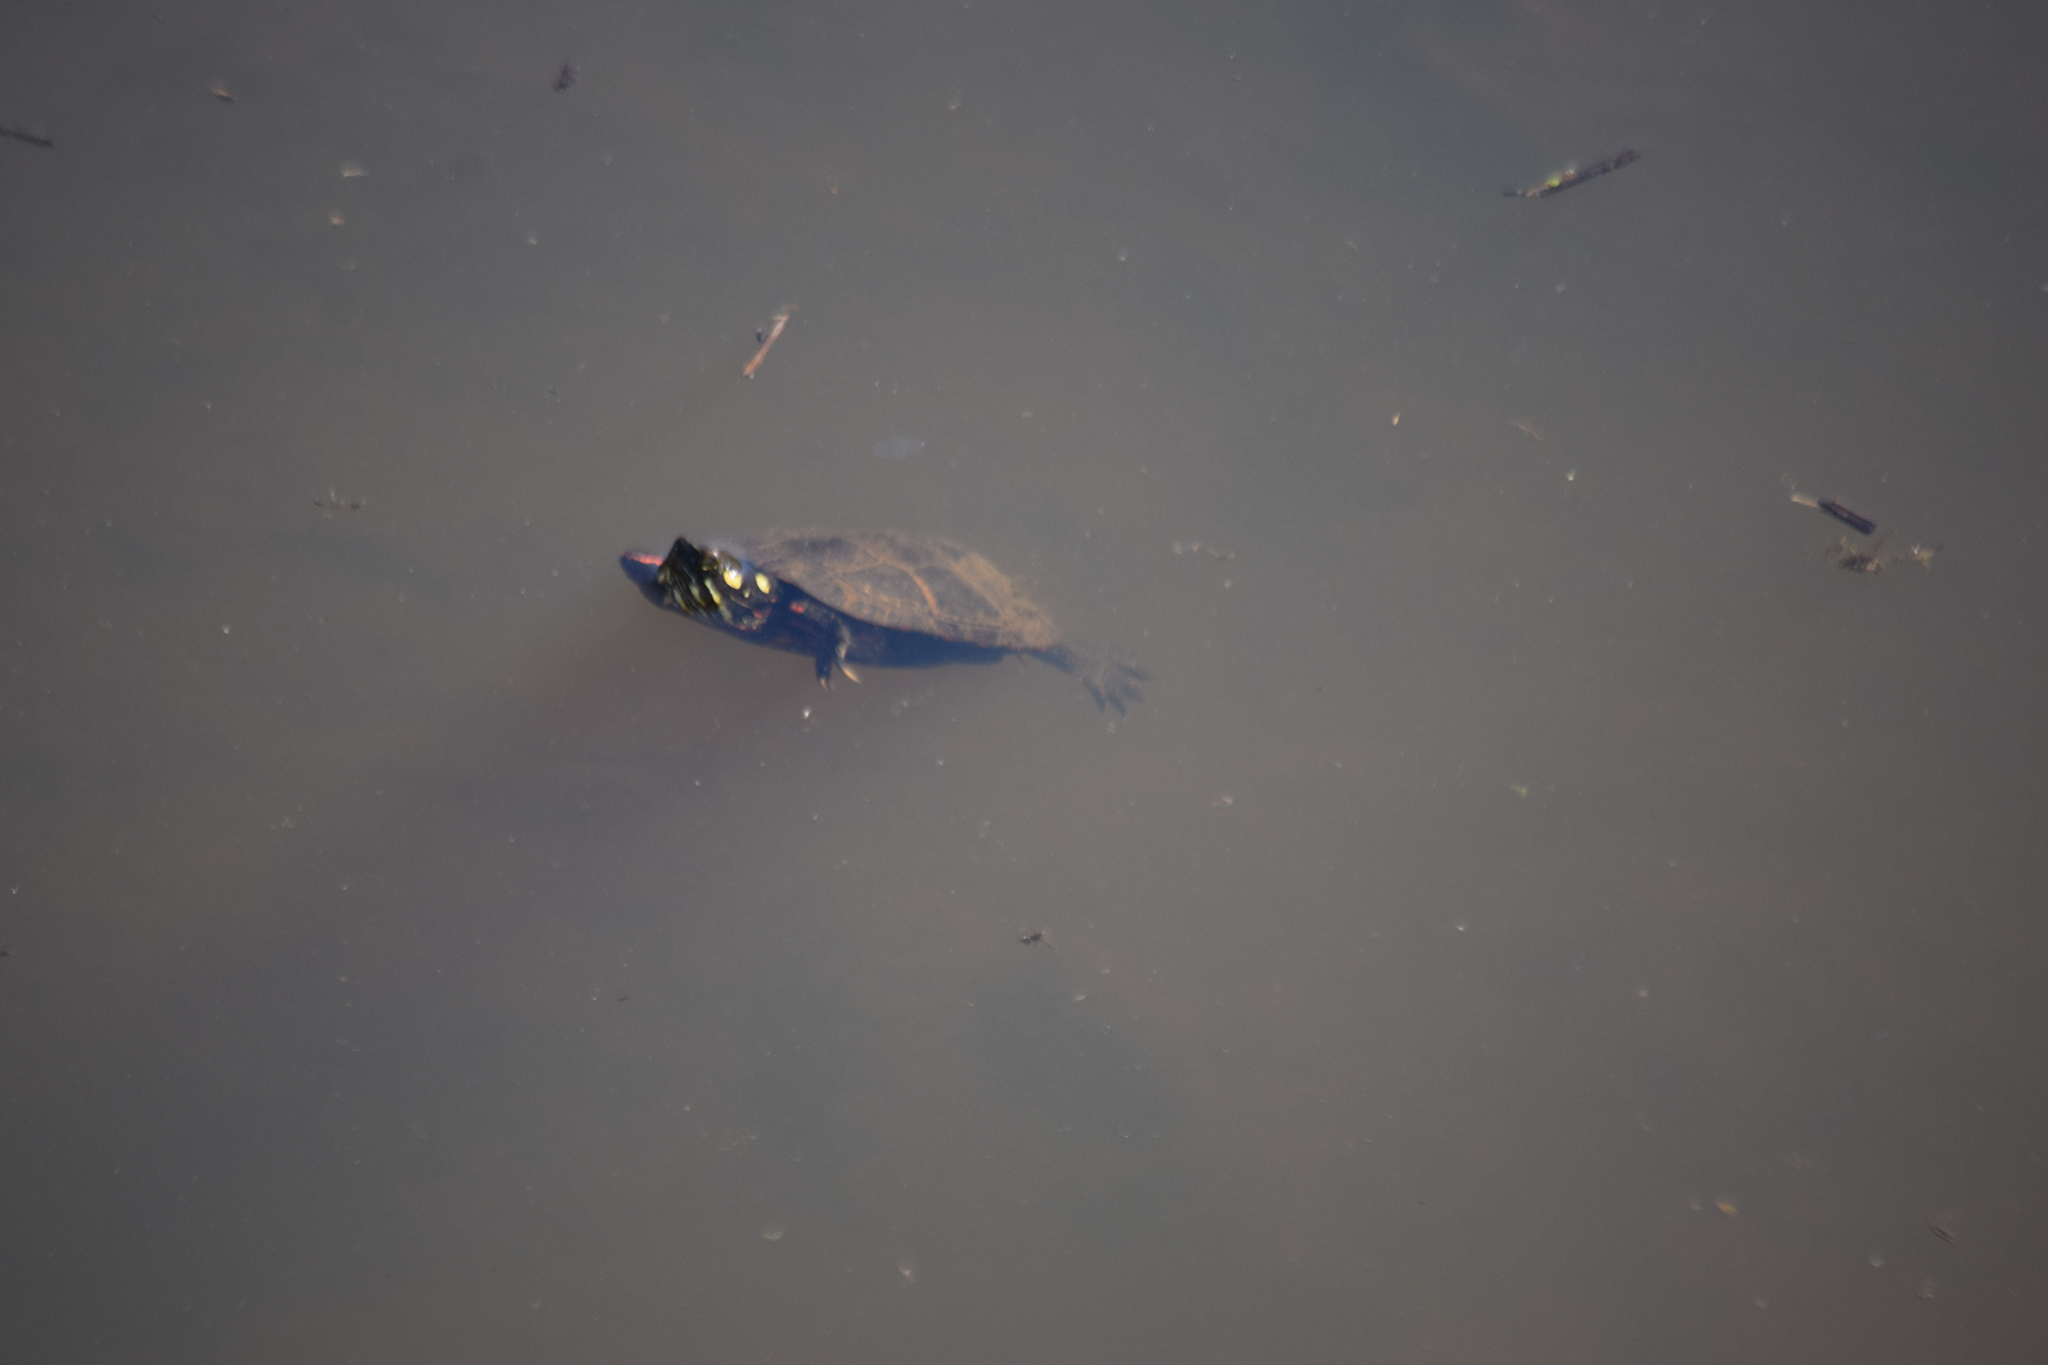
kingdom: Animalia
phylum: Chordata
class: Testudines
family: Emydidae
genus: Chrysemys
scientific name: Chrysemys picta
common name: Painted turtle
